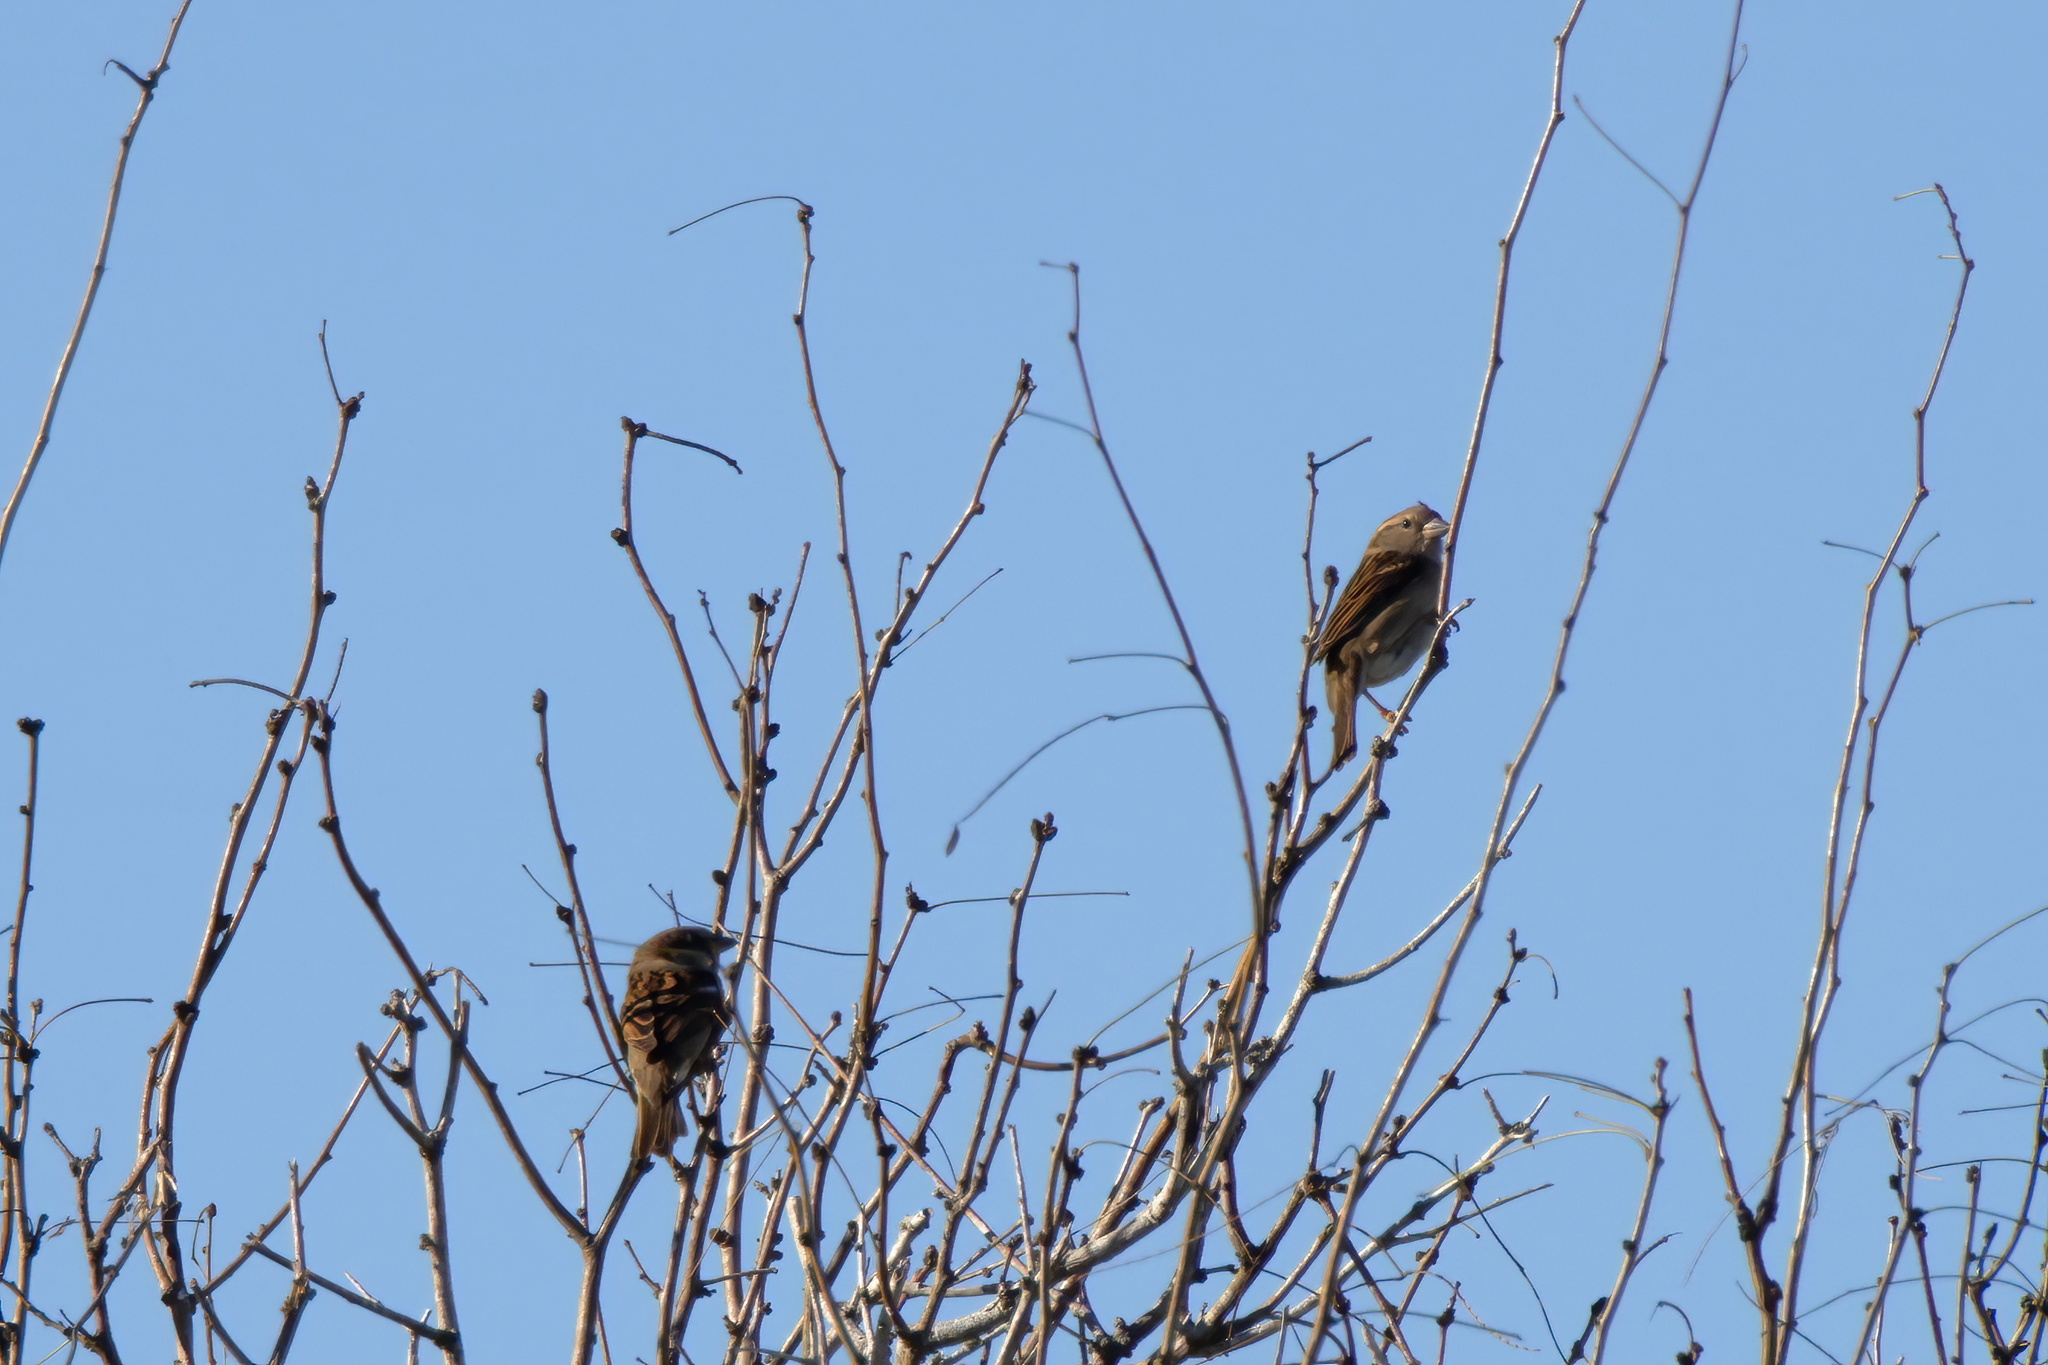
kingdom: Animalia
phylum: Chordata
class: Aves
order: Passeriformes
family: Passeridae
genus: Passer
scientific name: Passer domesticus
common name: House sparrow
